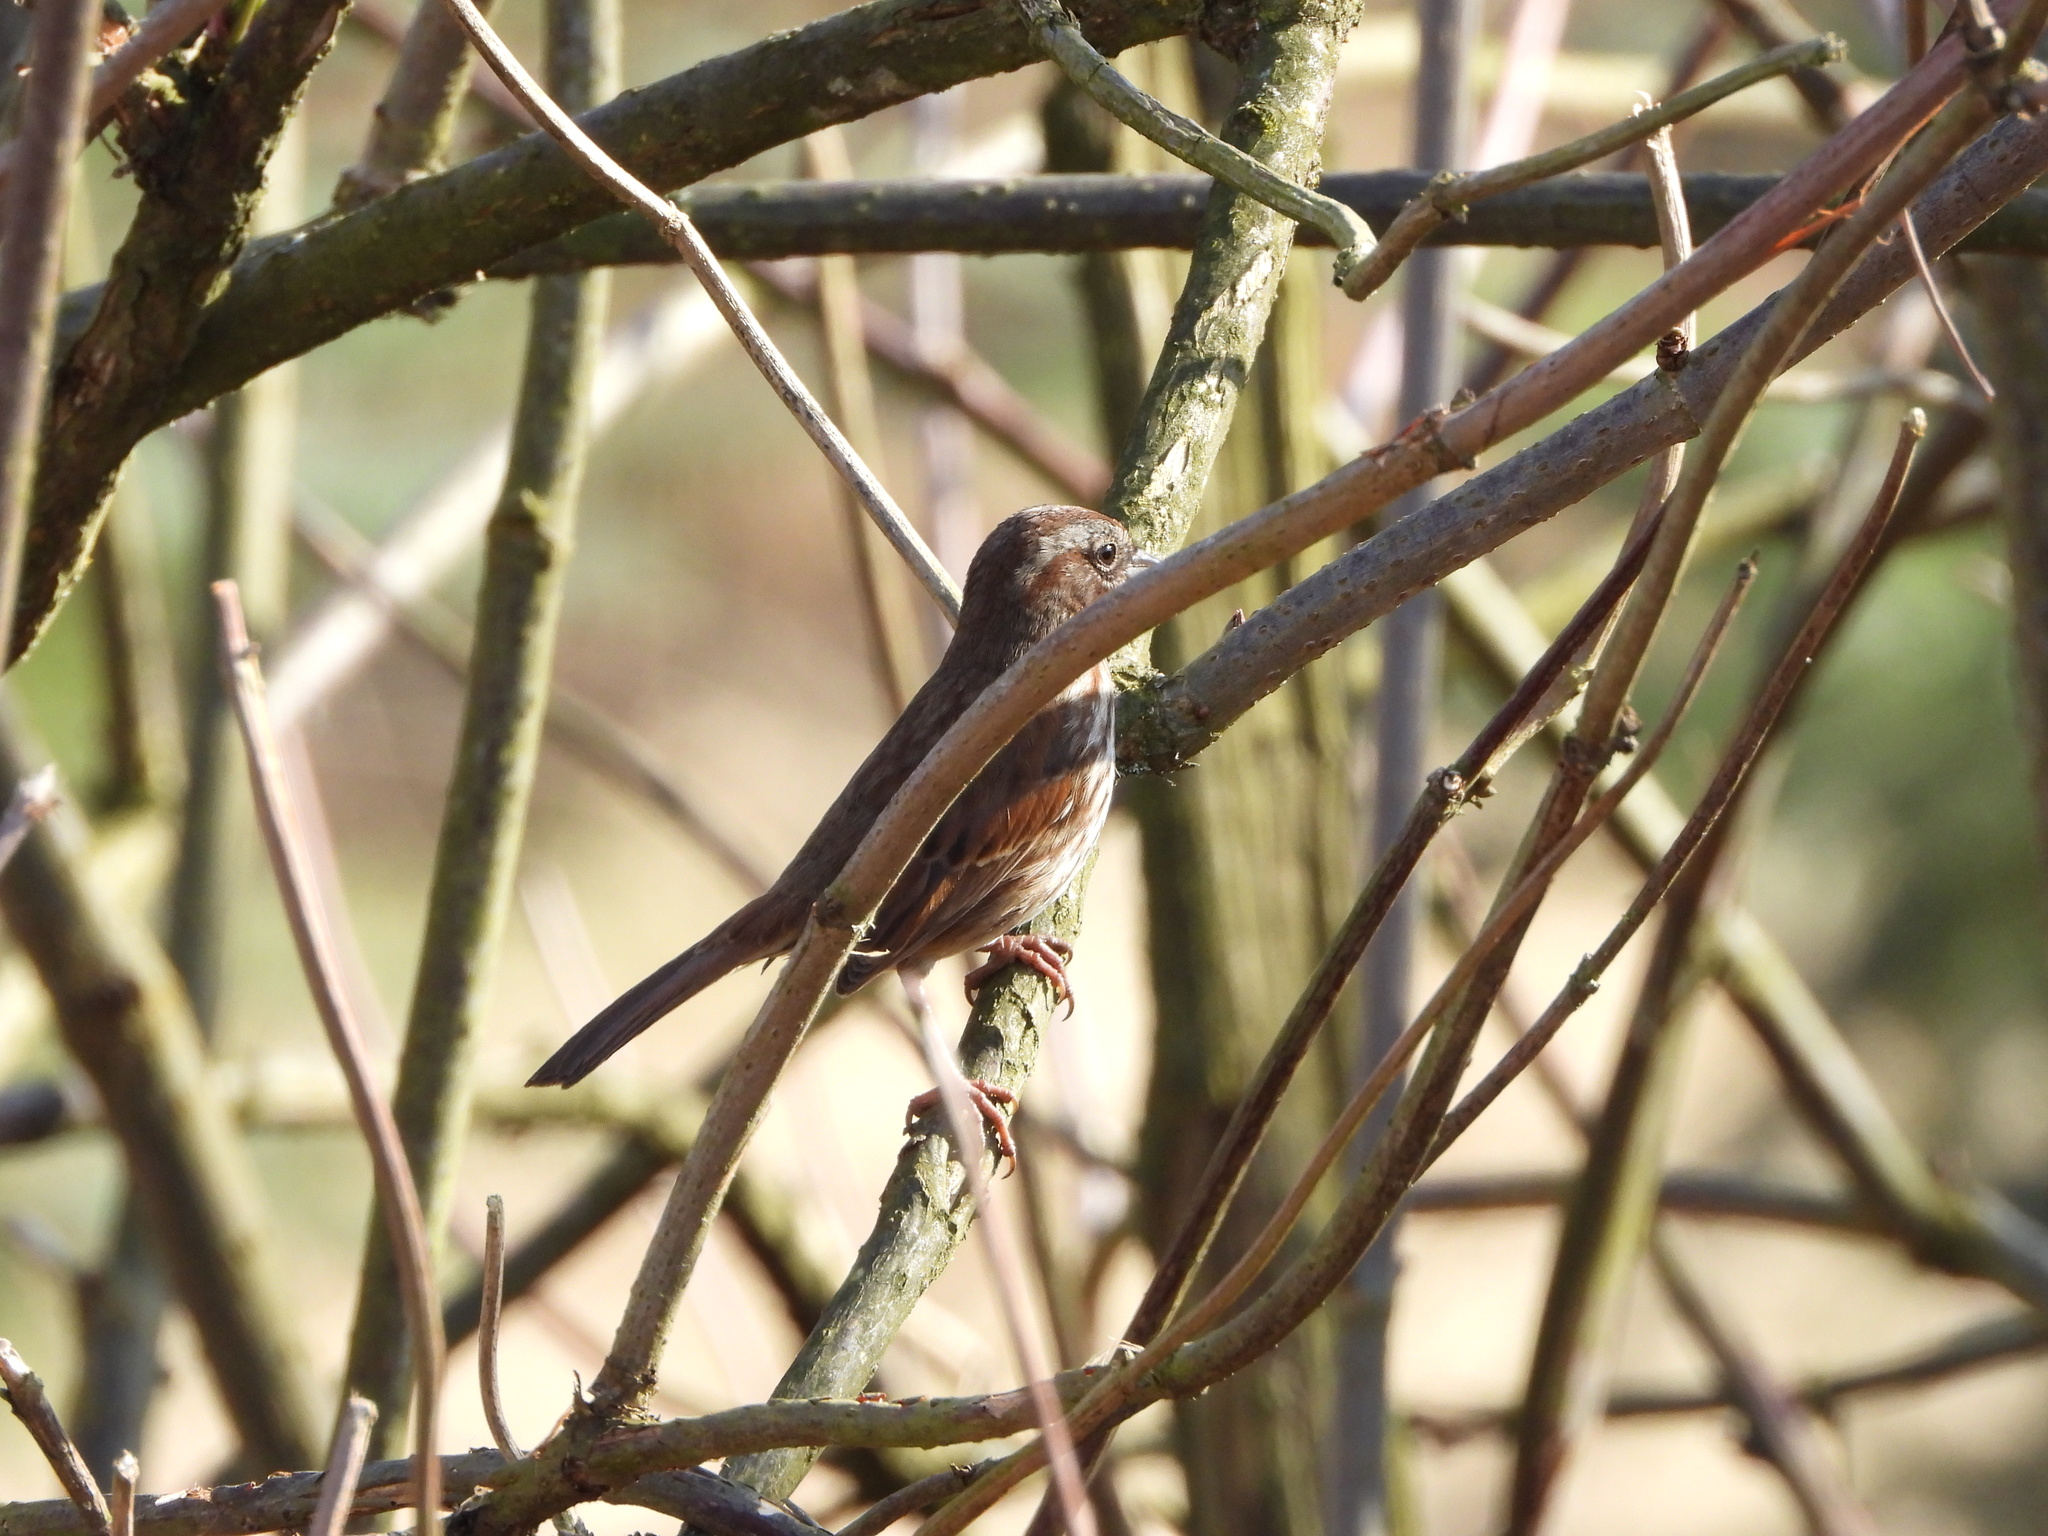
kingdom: Animalia
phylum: Chordata
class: Aves
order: Passeriformes
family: Passerellidae
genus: Melospiza
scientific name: Melospiza melodia
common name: Song sparrow
